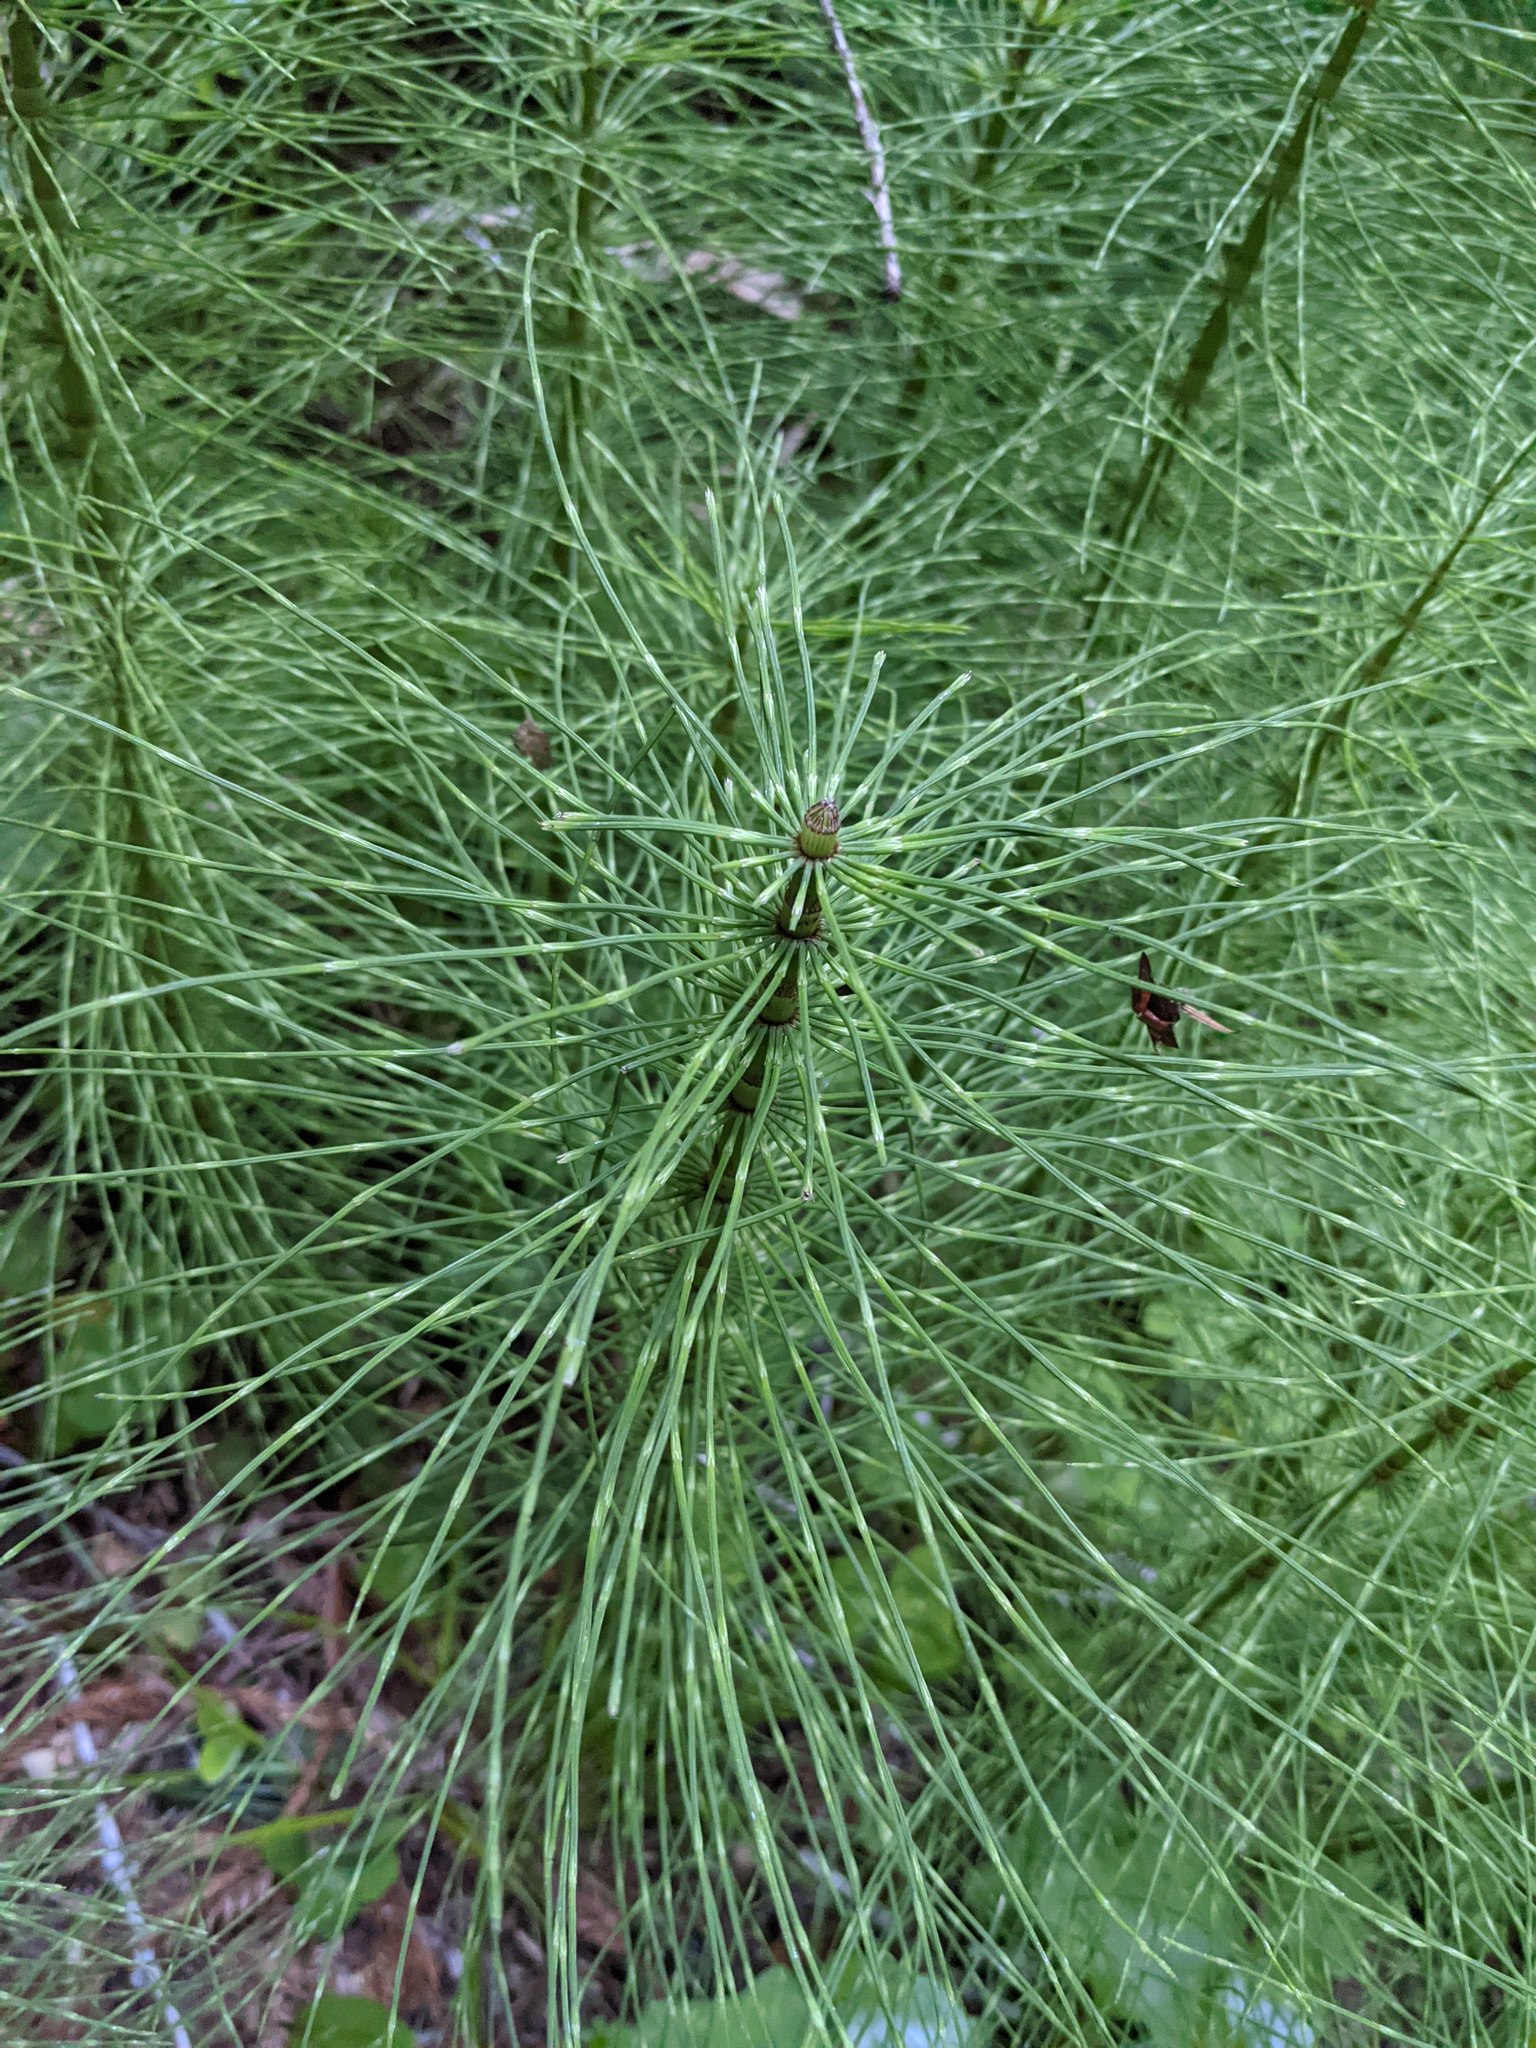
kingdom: Plantae
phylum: Tracheophyta
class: Polypodiopsida
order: Equisetales
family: Equisetaceae
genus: Equisetum
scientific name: Equisetum braunii
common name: Braun's horsetail
